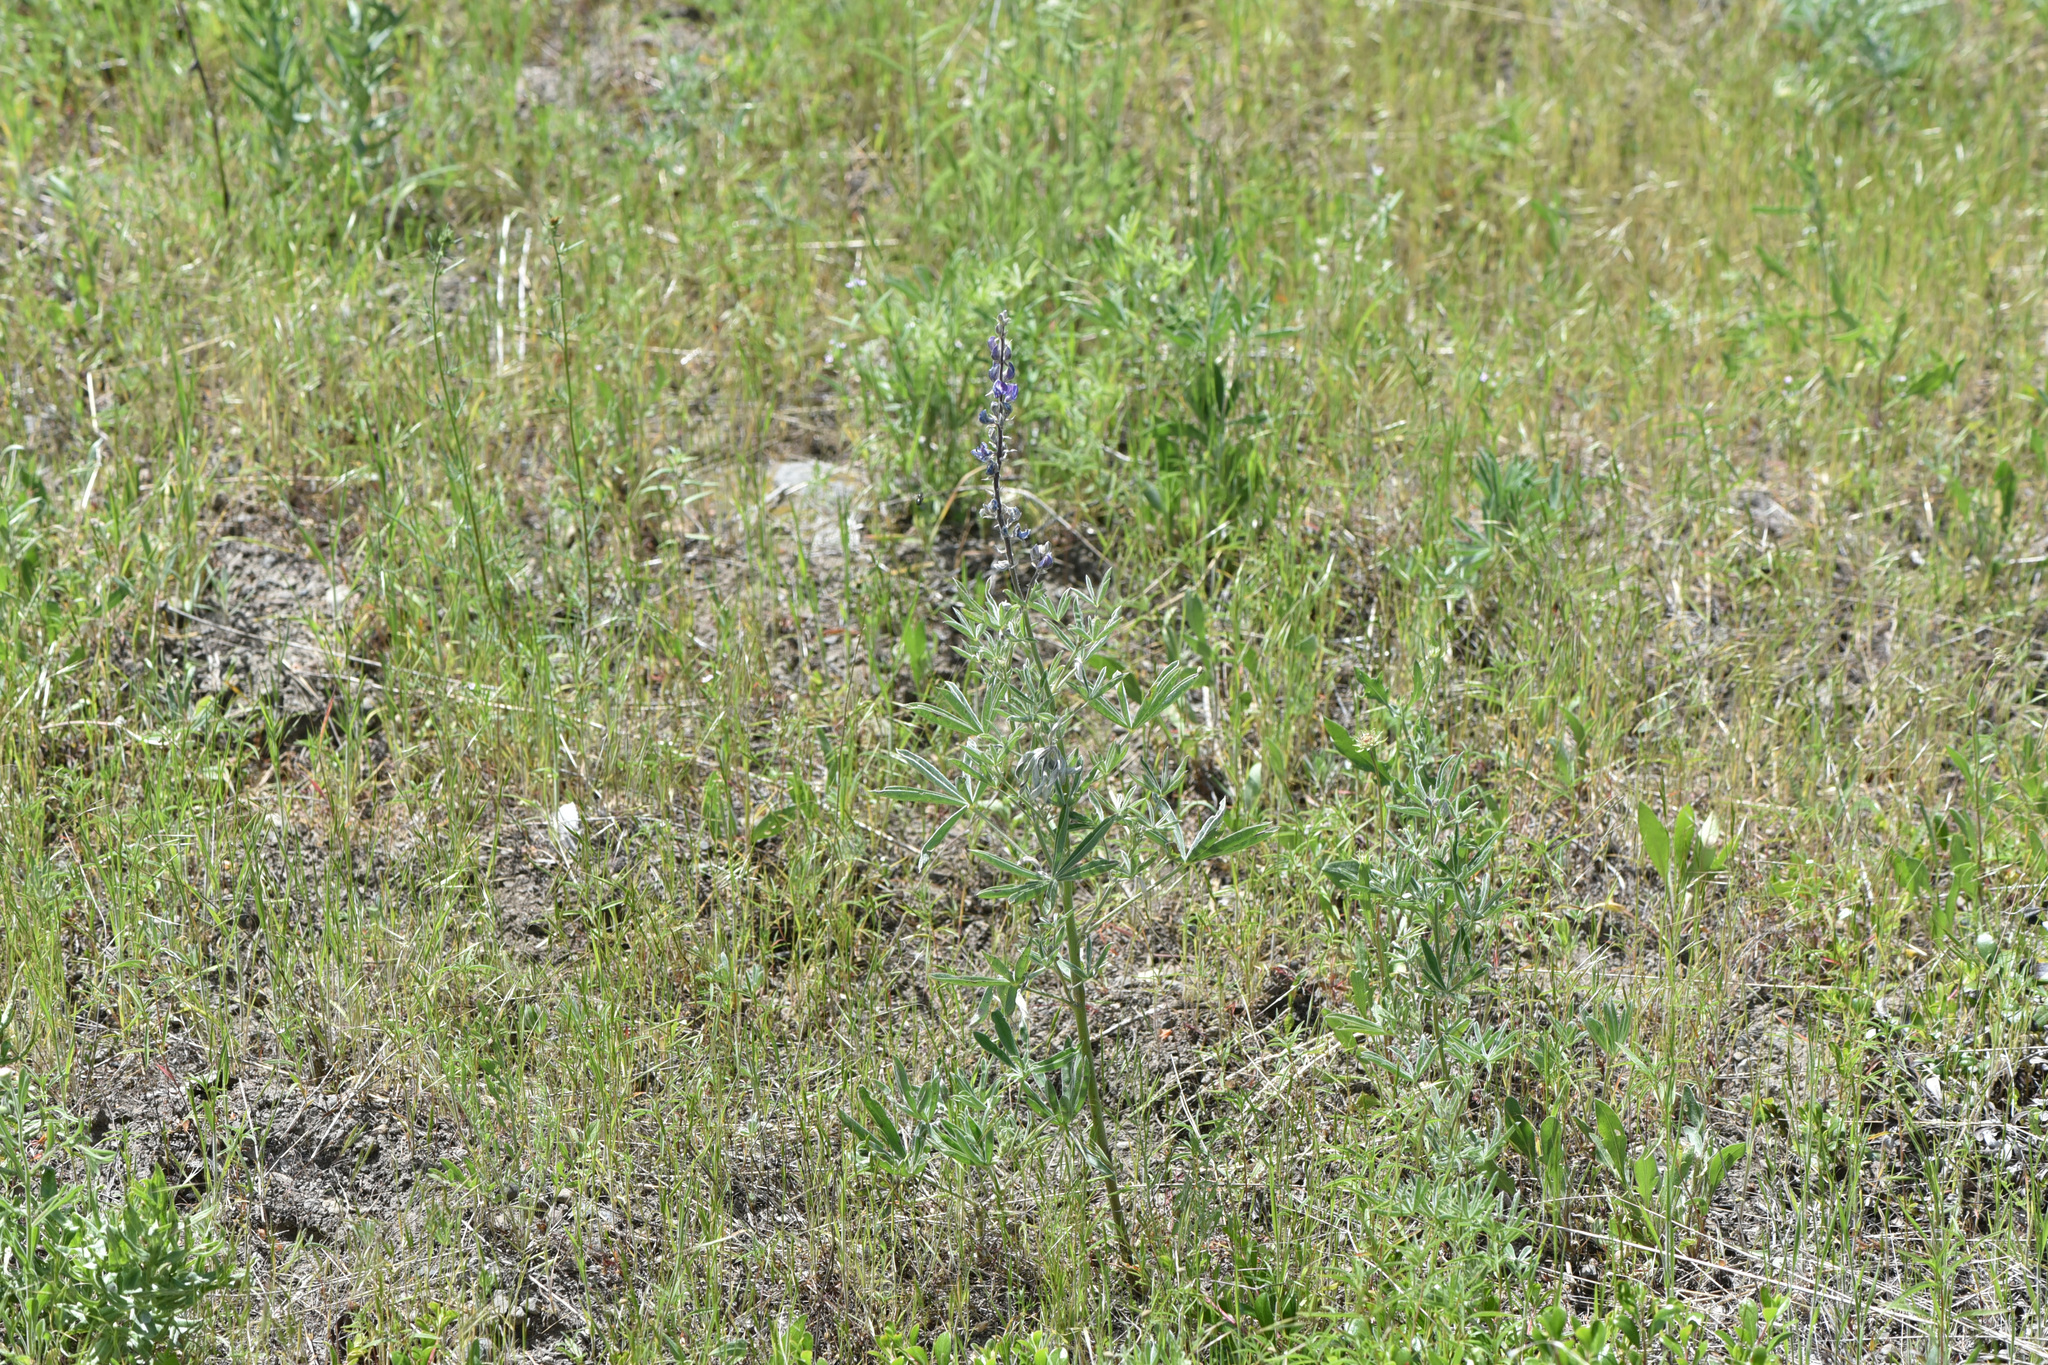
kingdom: Plantae
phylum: Tracheophyta
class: Magnoliopsida
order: Fabales
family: Fabaceae
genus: Lupinus
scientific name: Lupinus sericeus
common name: Silky lupine
